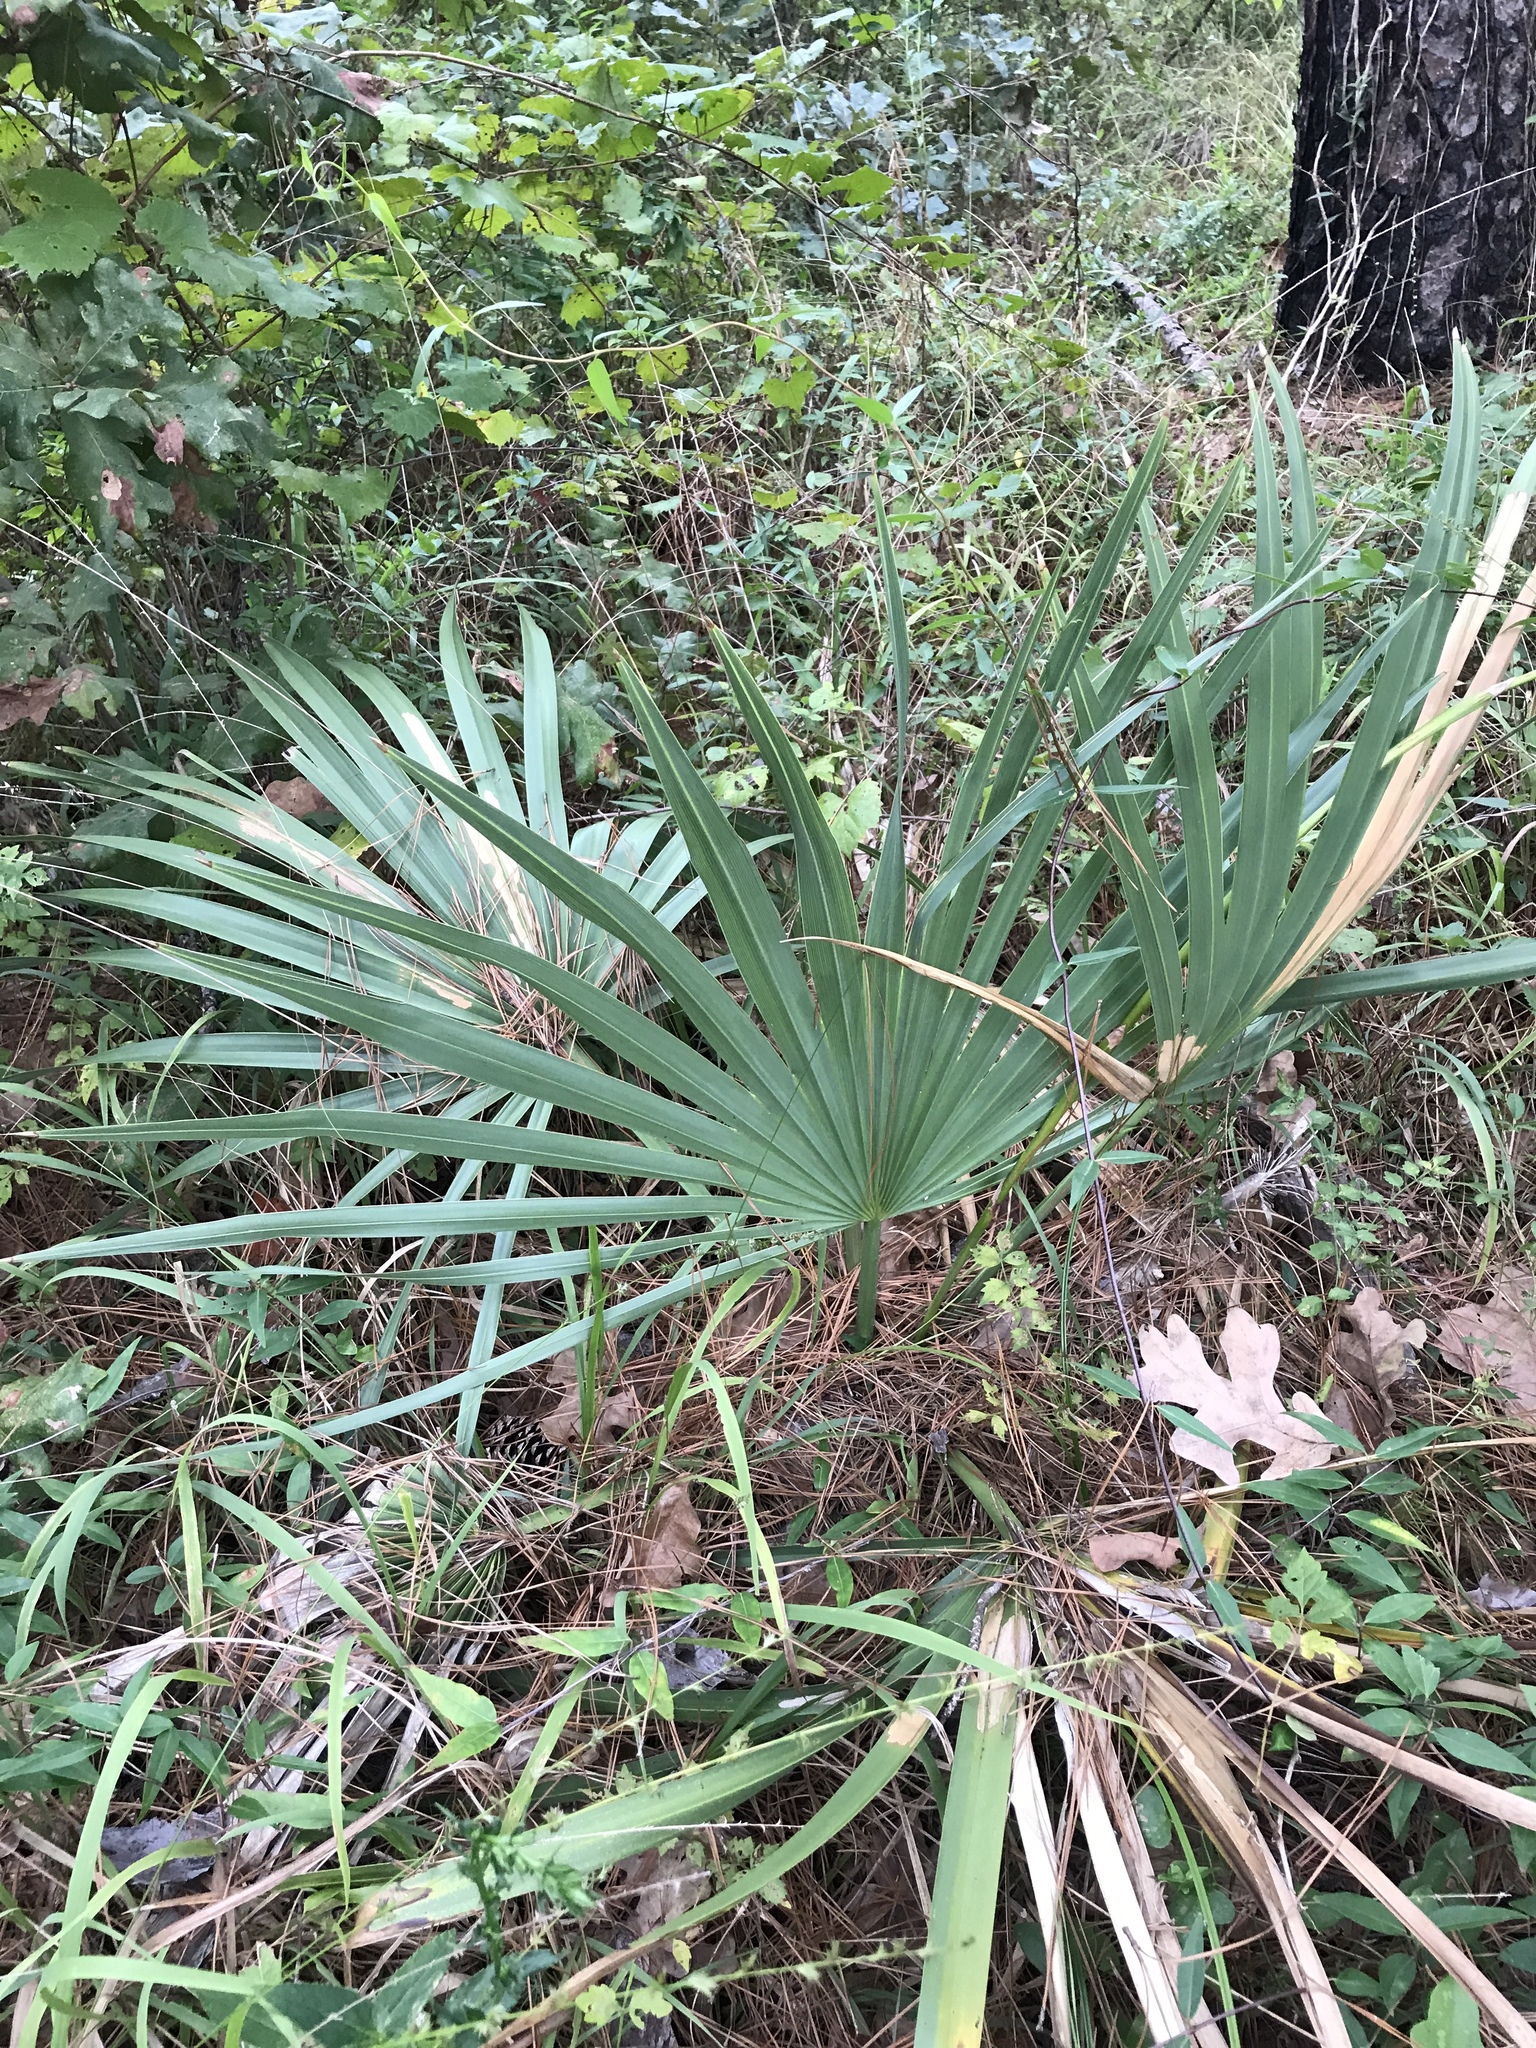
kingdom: Plantae
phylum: Tracheophyta
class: Liliopsida
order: Arecales
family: Arecaceae
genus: Sabal
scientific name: Sabal minor
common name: Dwarf palmetto
